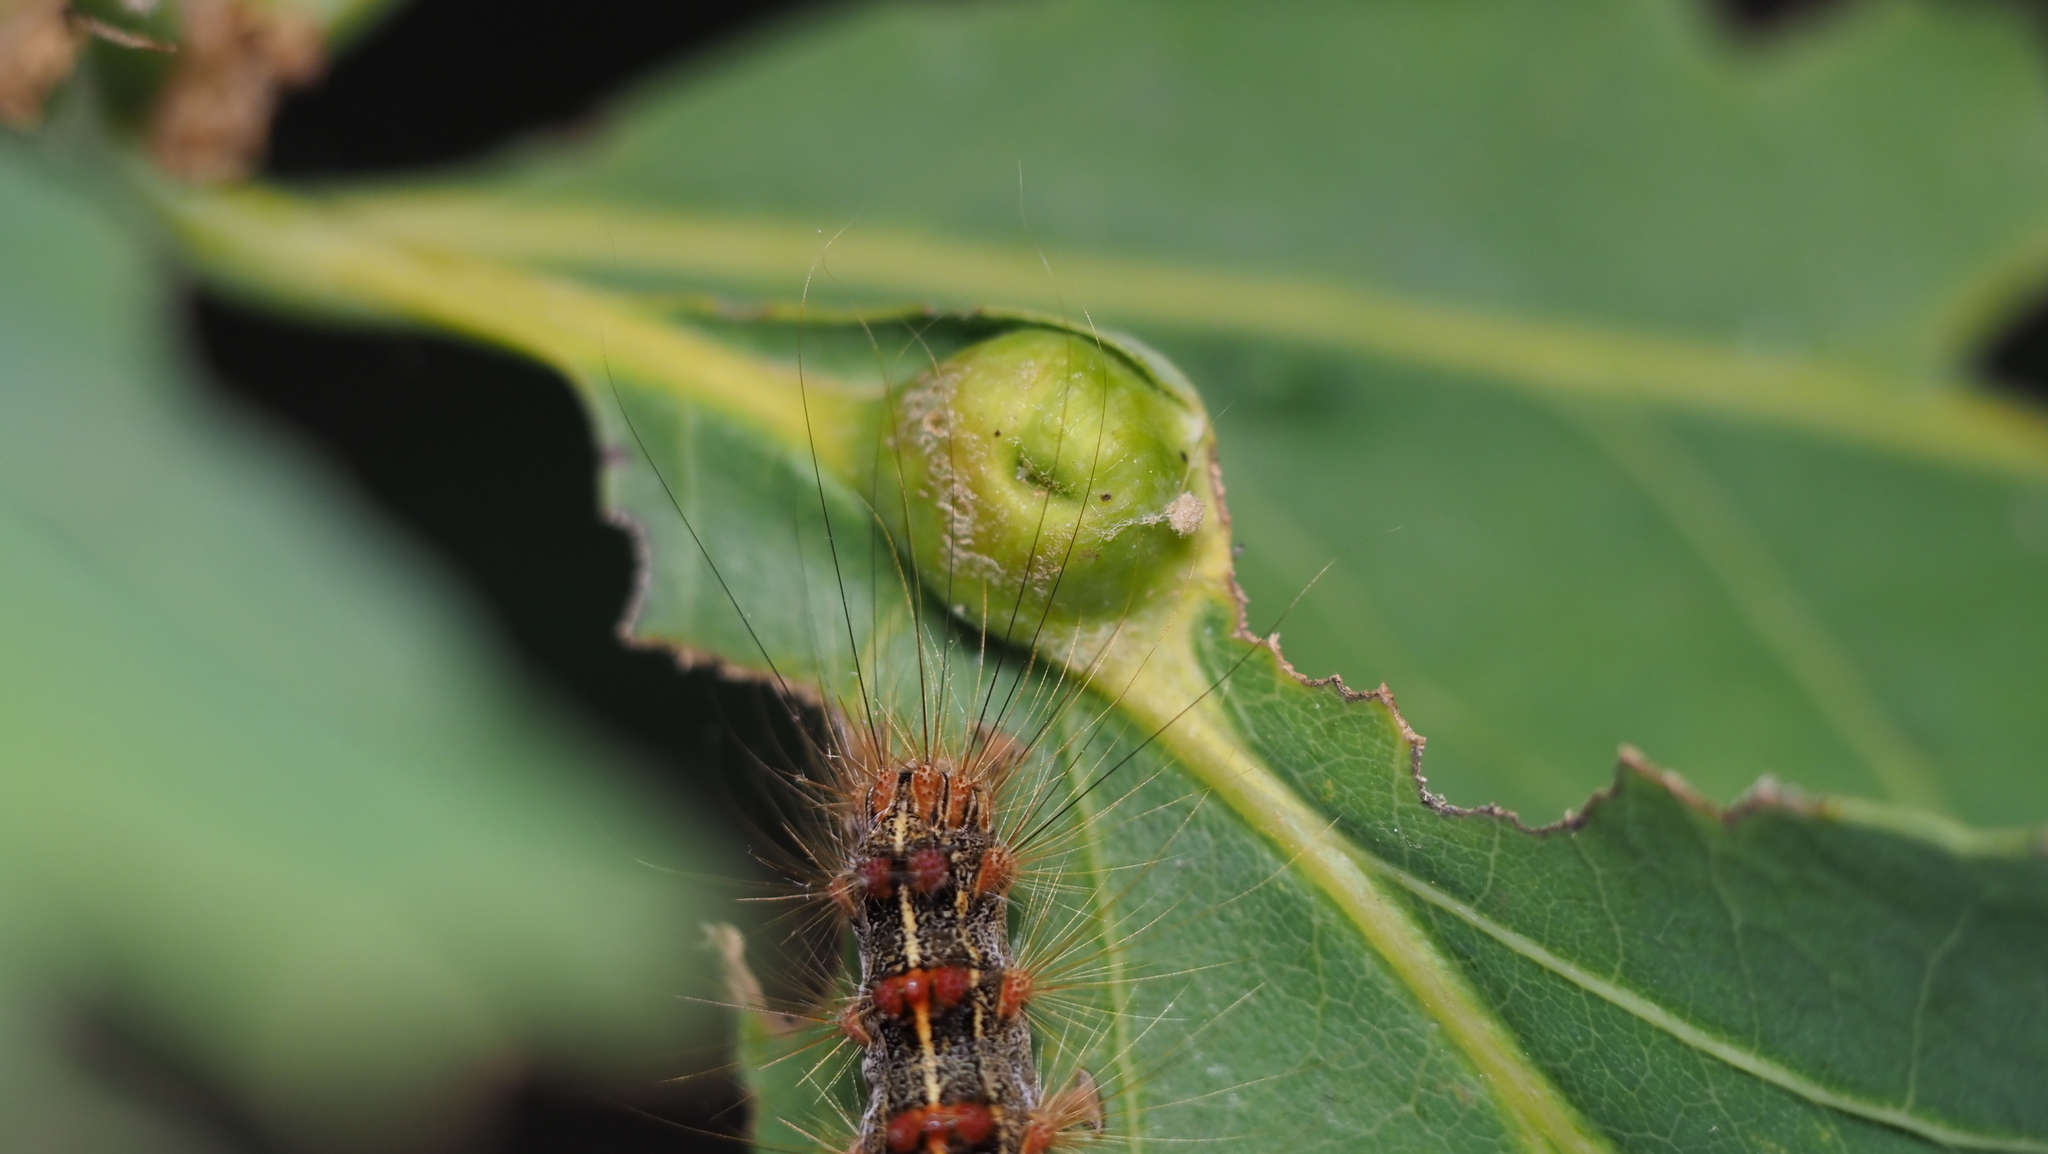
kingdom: Animalia
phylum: Arthropoda
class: Insecta
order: Hymenoptera
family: Cynipidae
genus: Andricus
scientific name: Andricus
